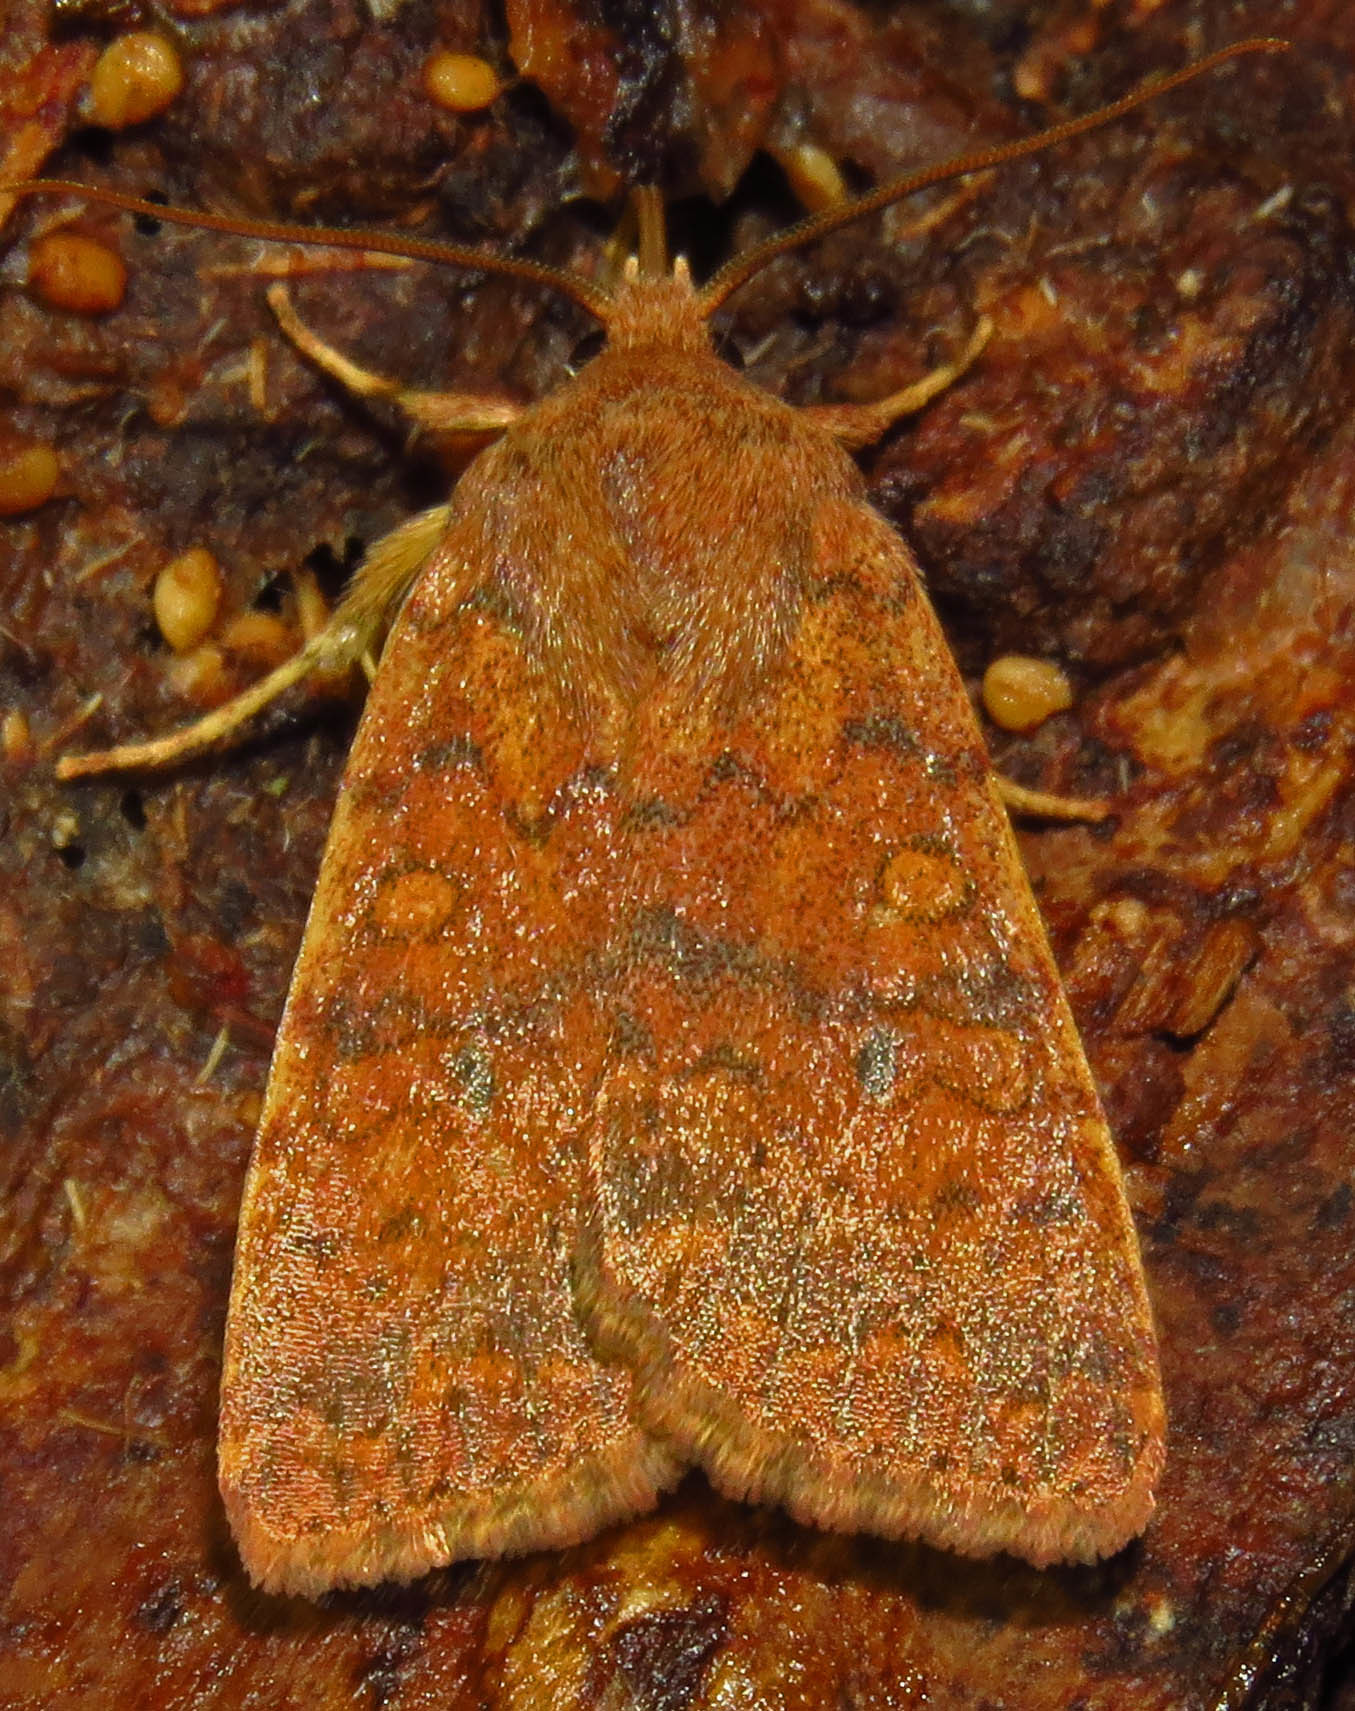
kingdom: Animalia
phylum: Arthropoda
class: Insecta
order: Lepidoptera
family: Noctuidae
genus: Agrochola
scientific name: Agrochola bicolorago
